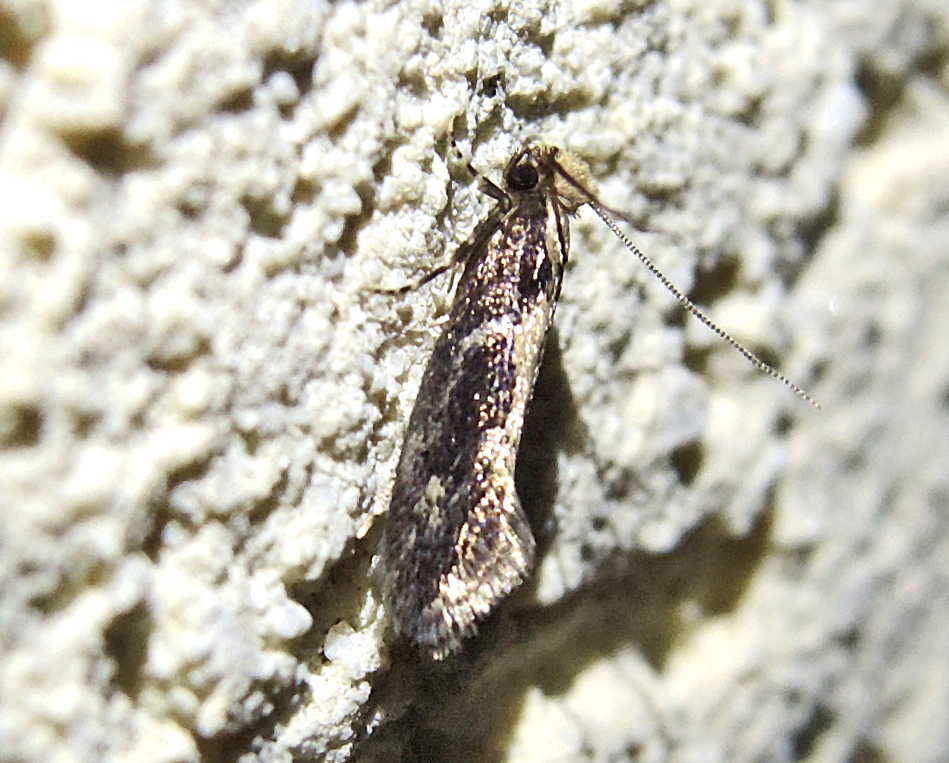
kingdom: Animalia
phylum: Arthropoda
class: Insecta
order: Lepidoptera
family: Tineidae
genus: Reisserita
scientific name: Reisserita relicinella
